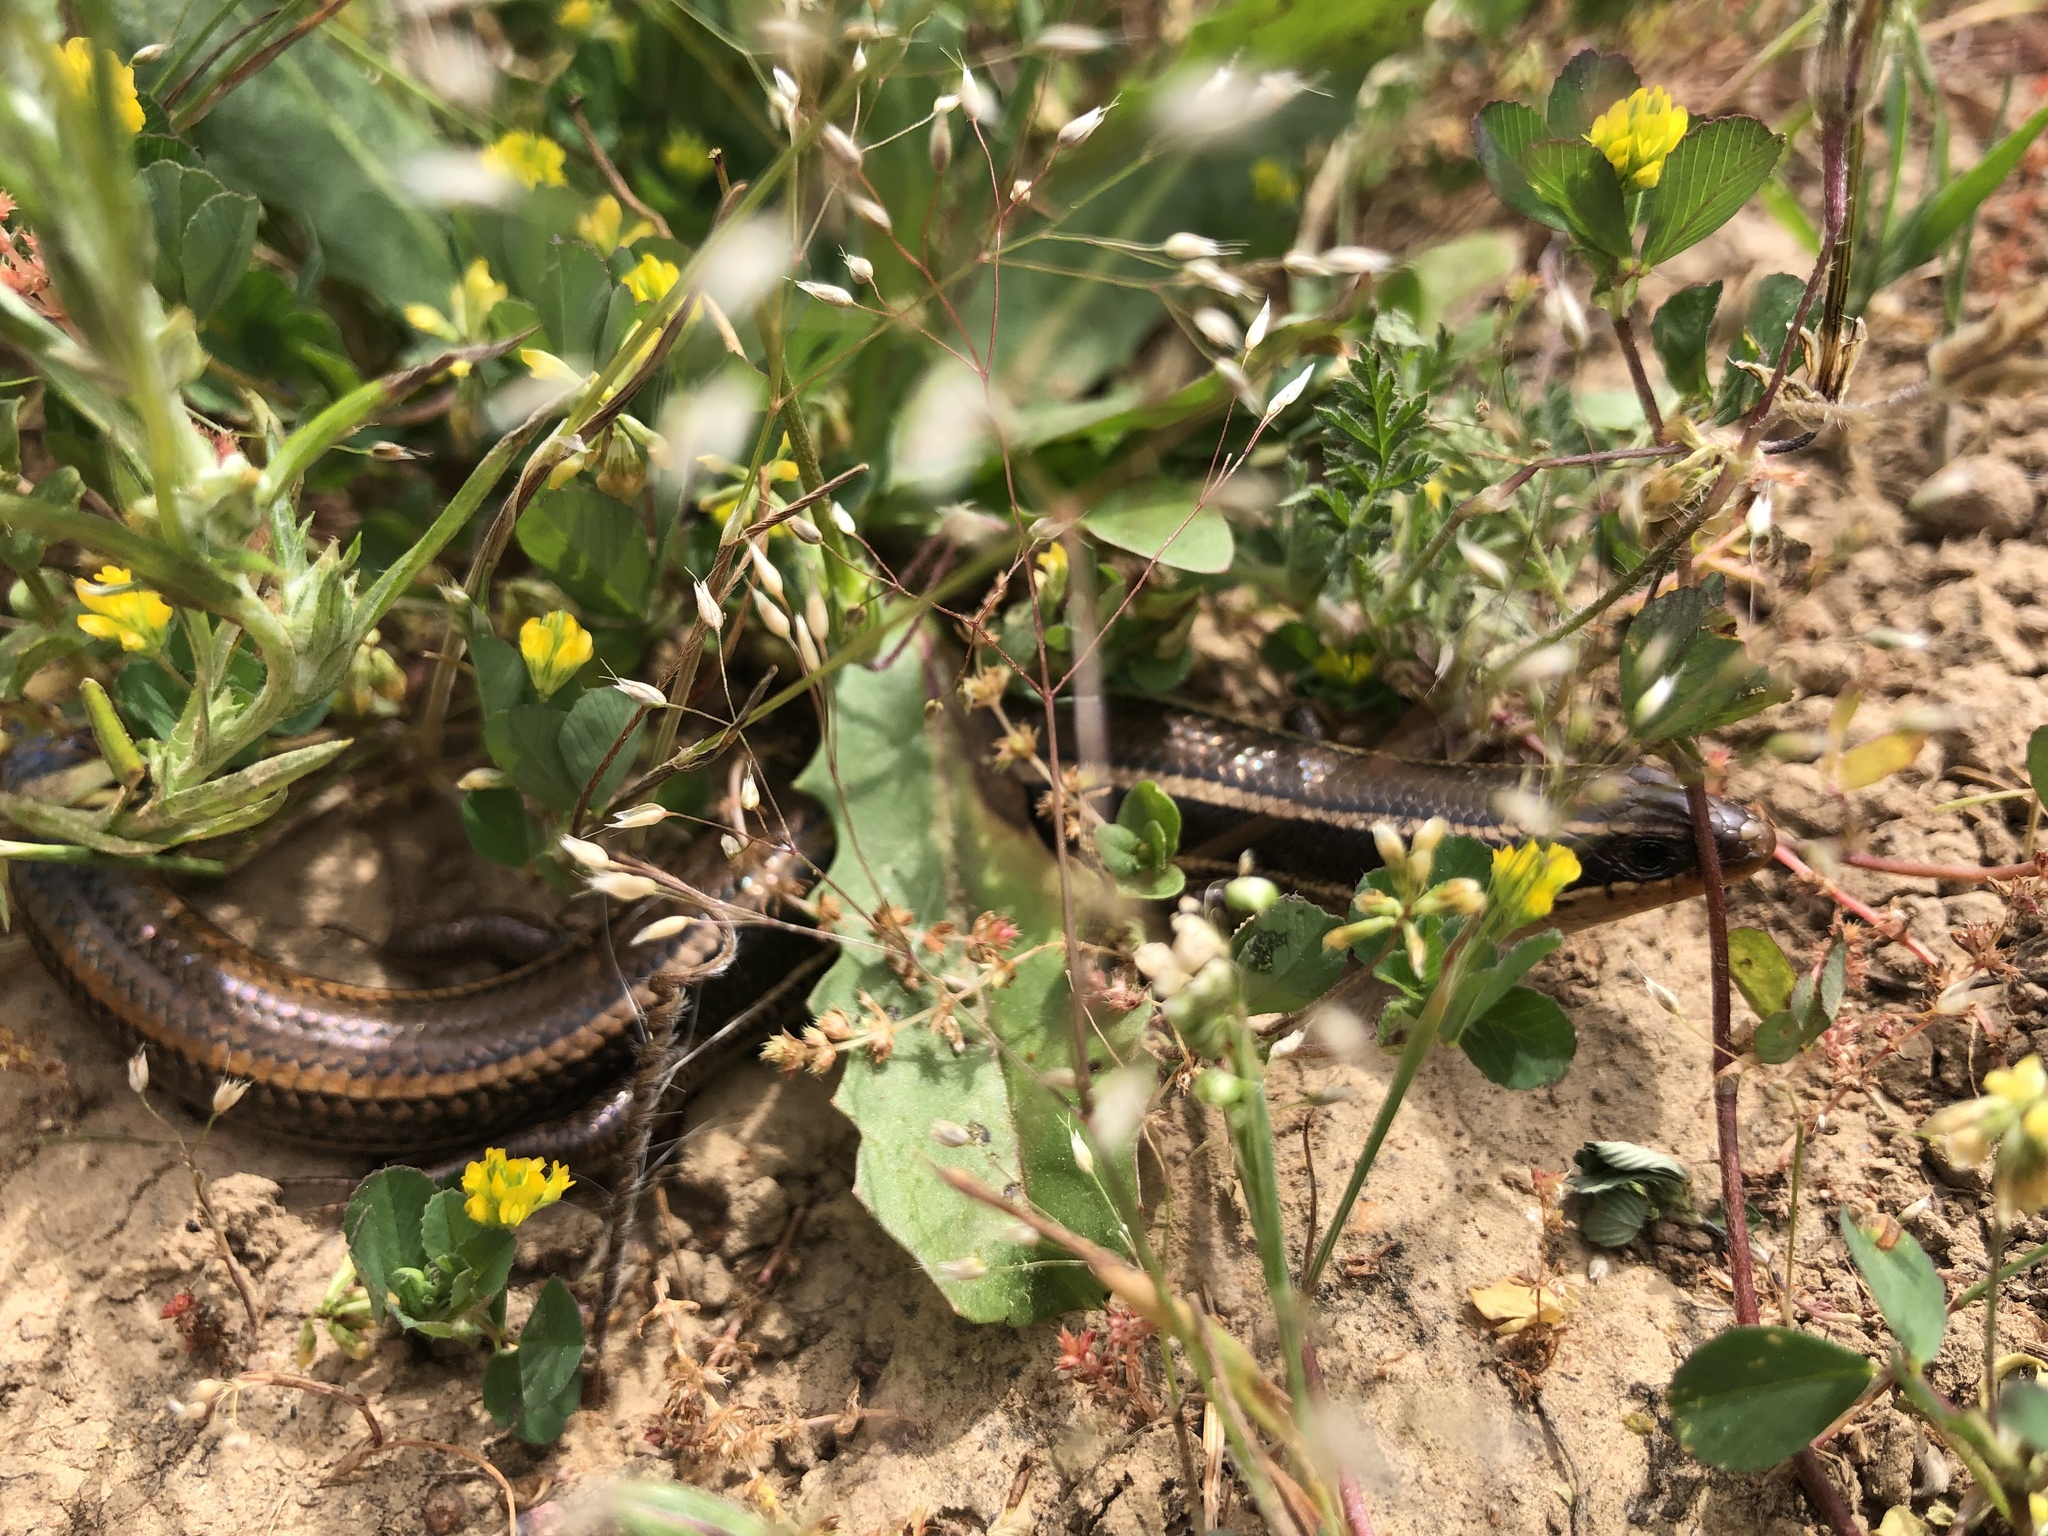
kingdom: Animalia
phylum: Chordata
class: Squamata
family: Scincidae
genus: Plestiodon
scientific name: Plestiodon skiltonianus
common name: Coronado island skink [interparietalis]
